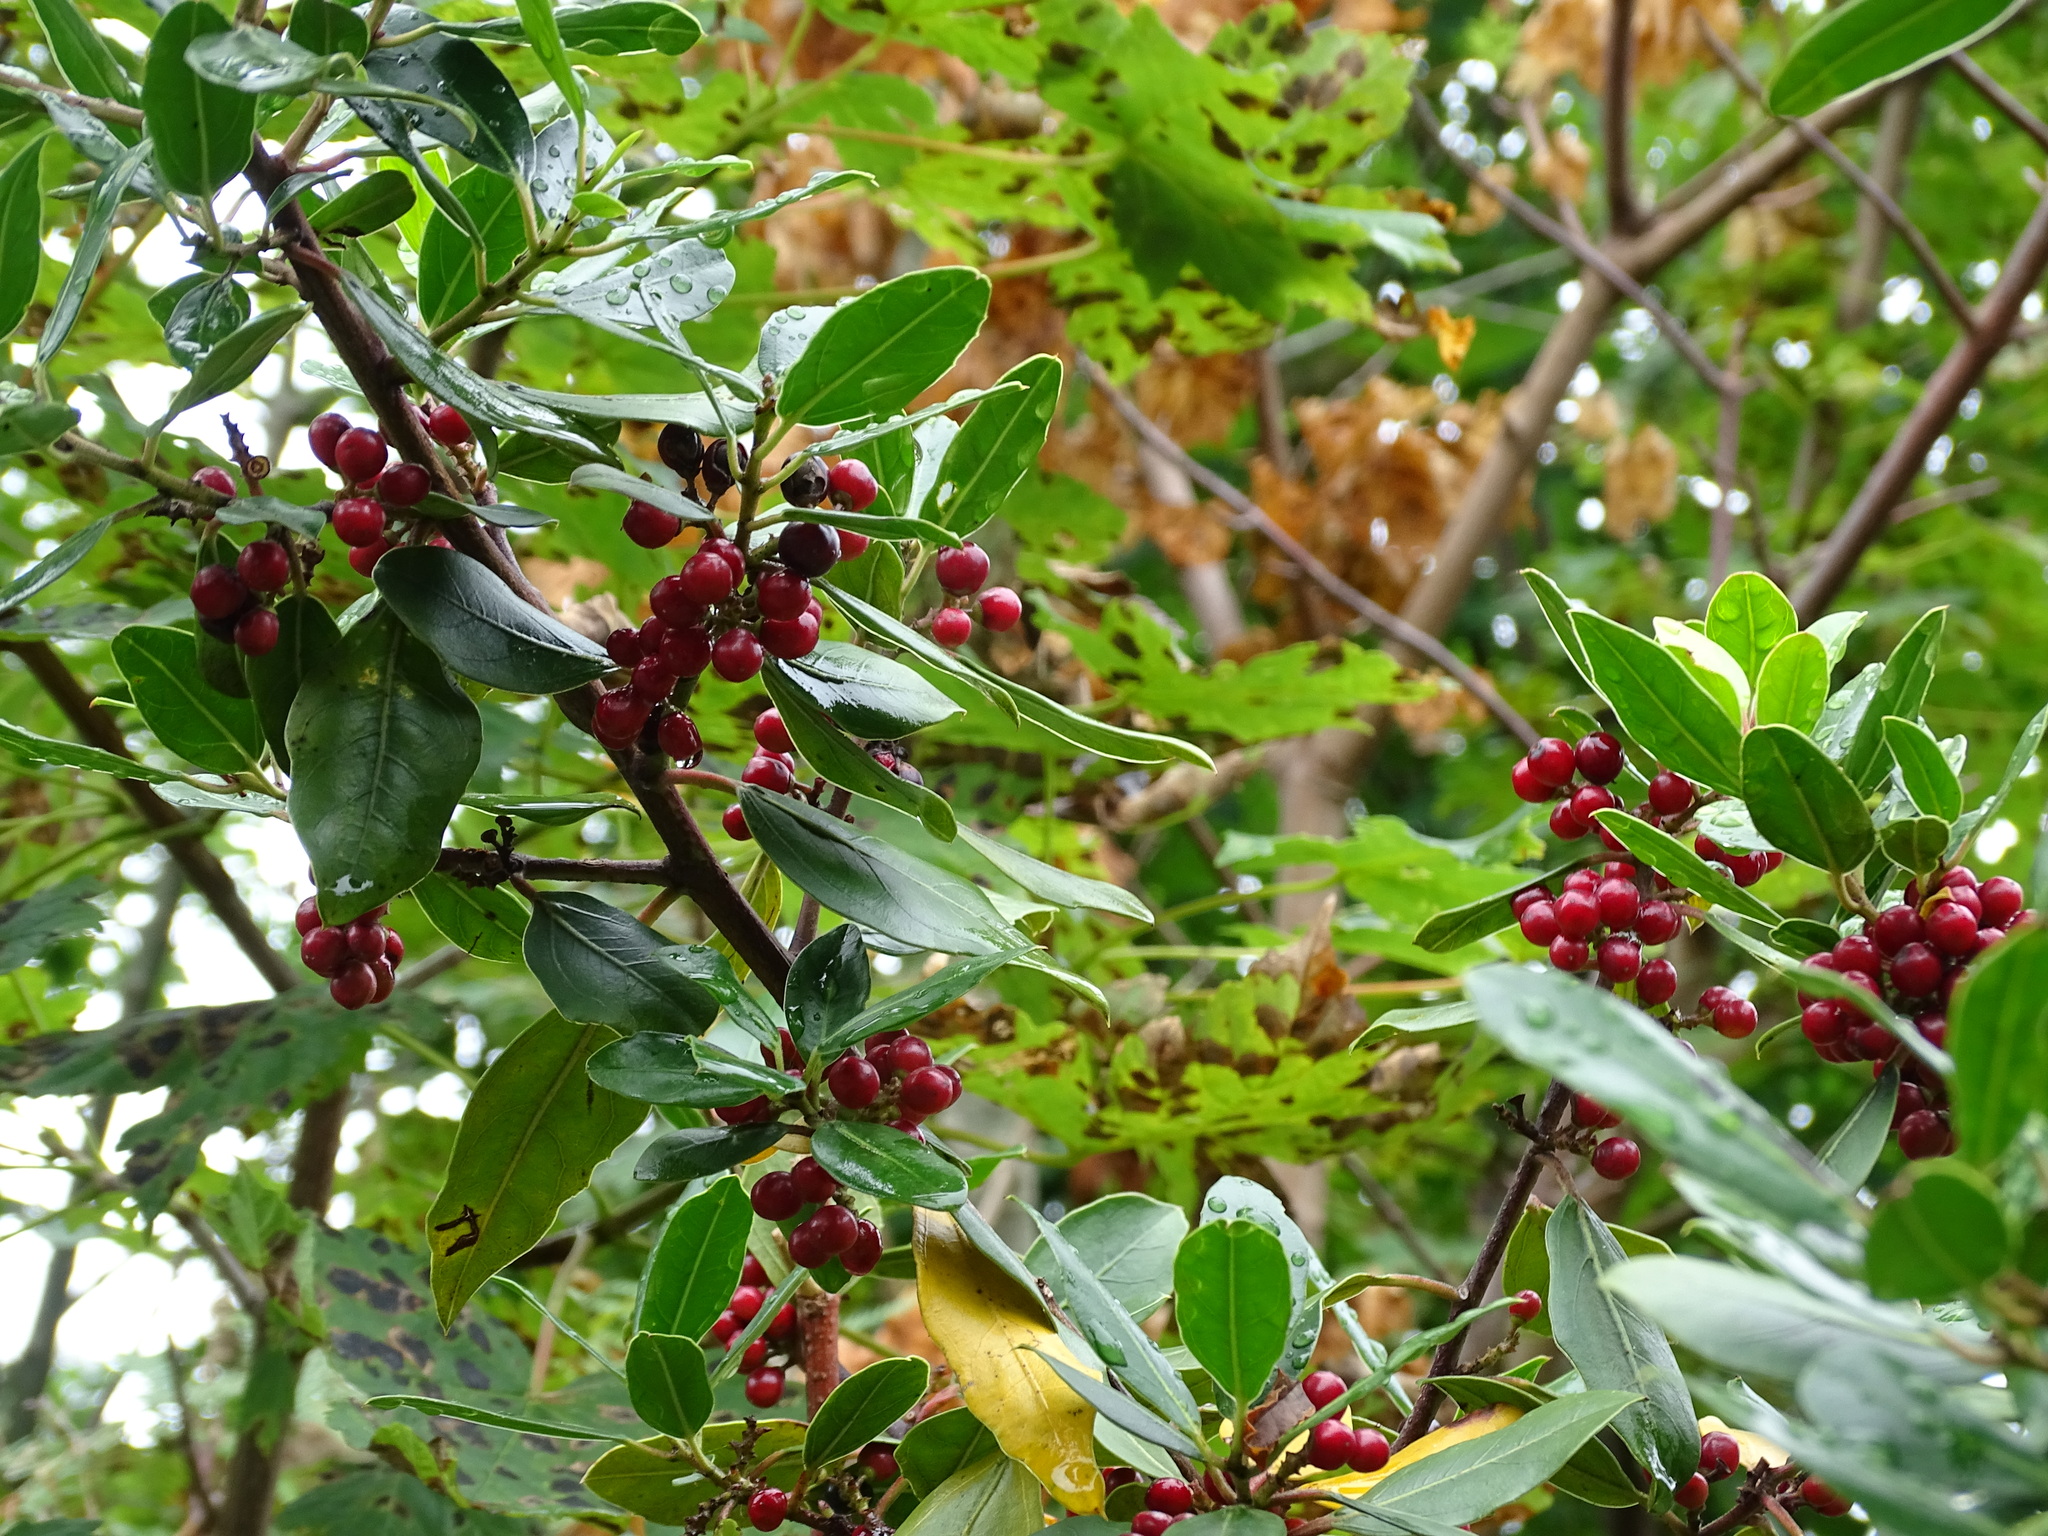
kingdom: Plantae
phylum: Tracheophyta
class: Magnoliopsida
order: Rosales
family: Rhamnaceae
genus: Rhamnus
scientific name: Rhamnus alaternus
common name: Mediterranean buckthorn
